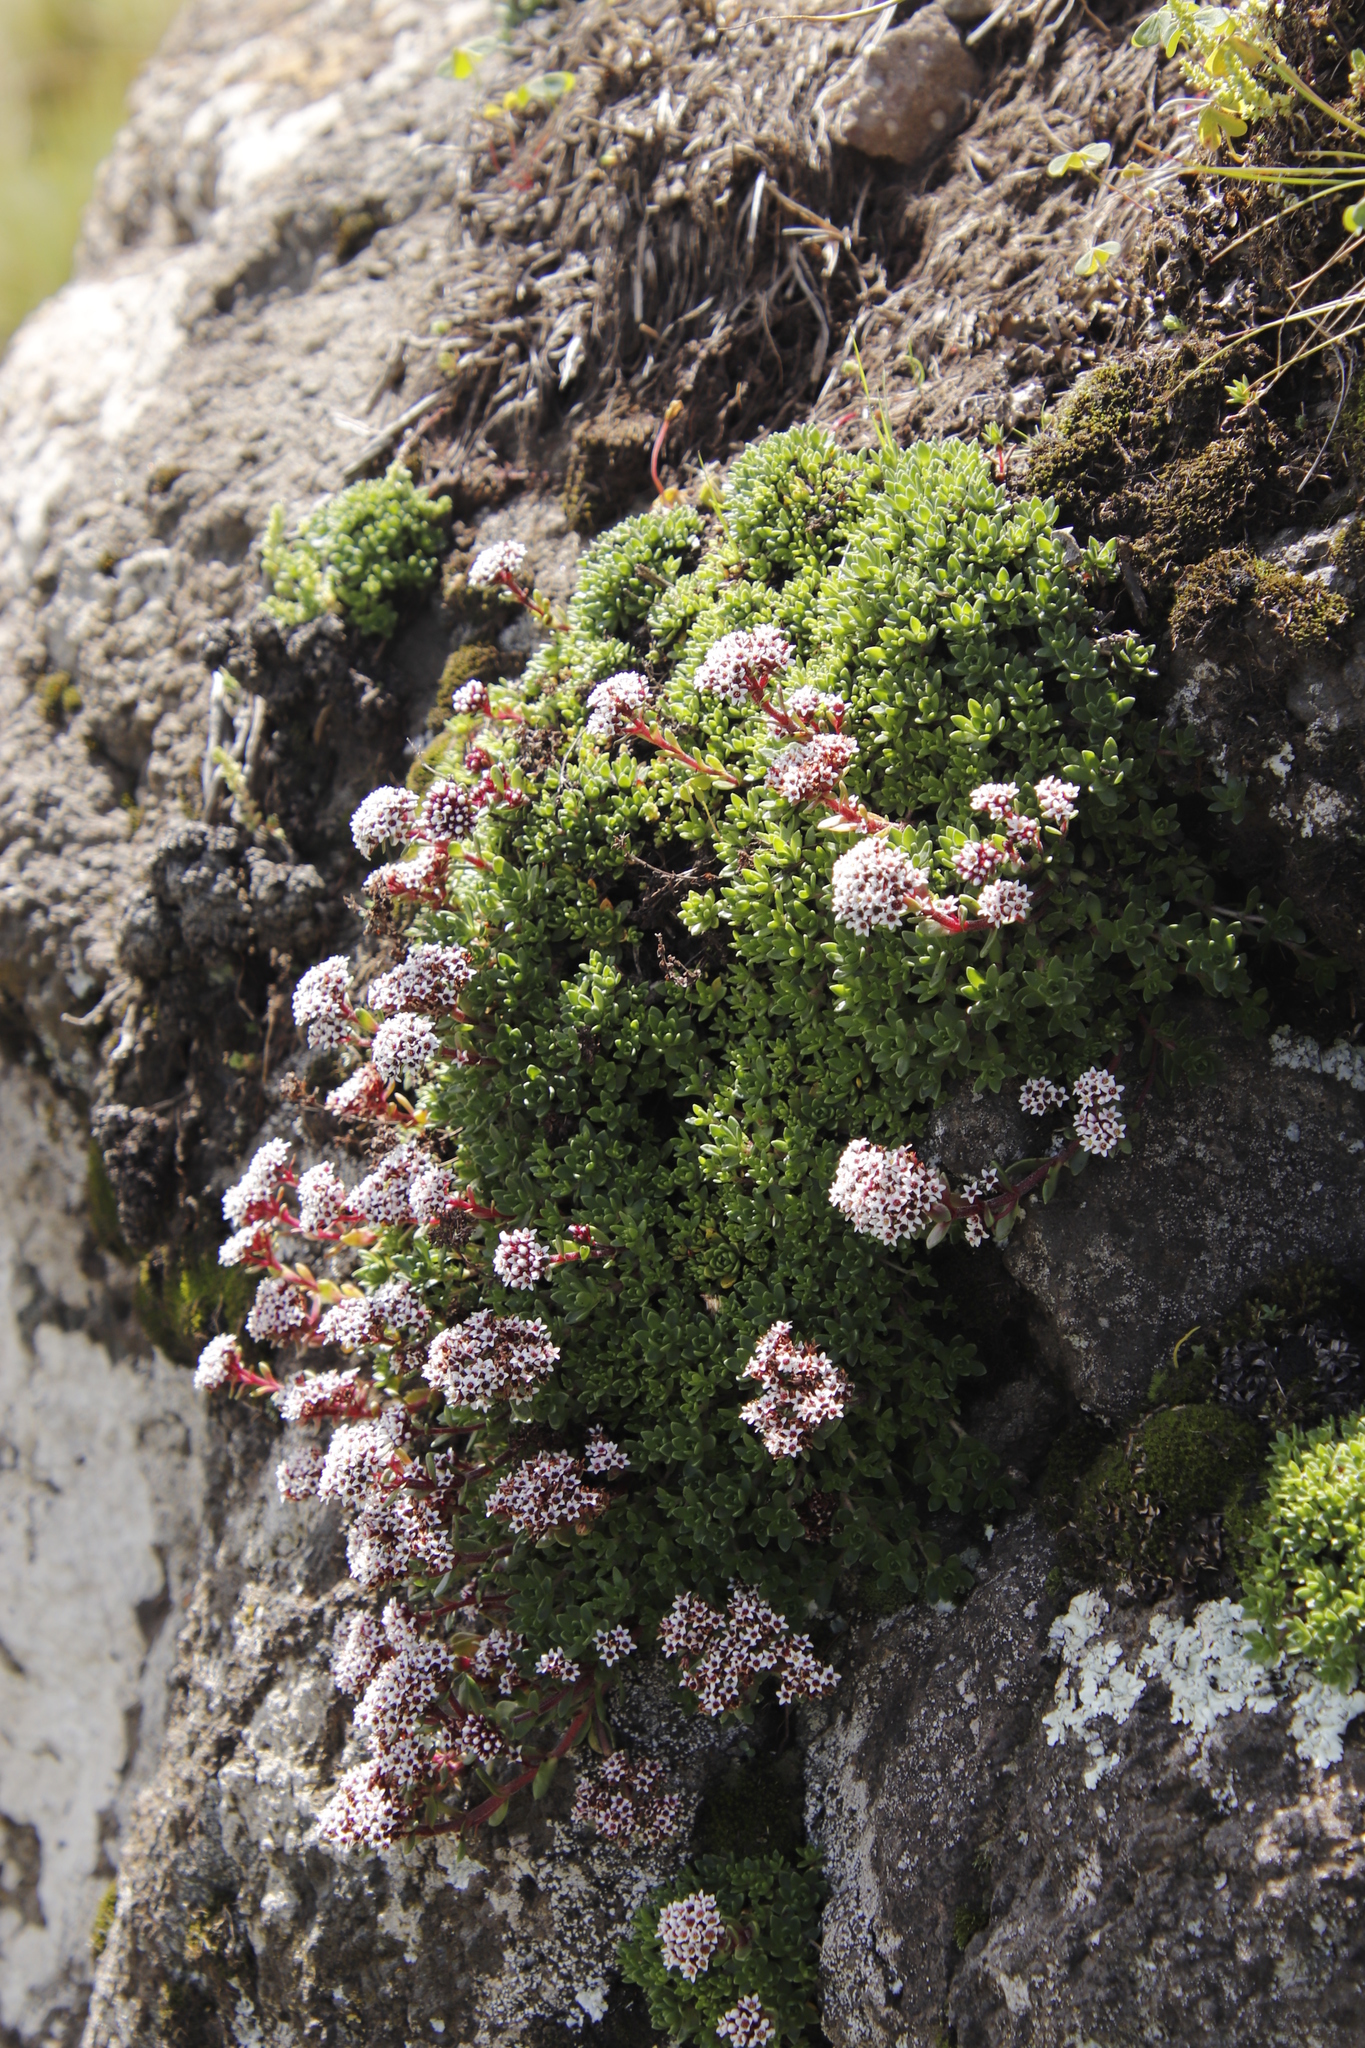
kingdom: Plantae
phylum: Tracheophyta
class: Magnoliopsida
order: Saxifragales
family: Crassulaceae
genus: Crassula
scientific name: Crassula setulosa
